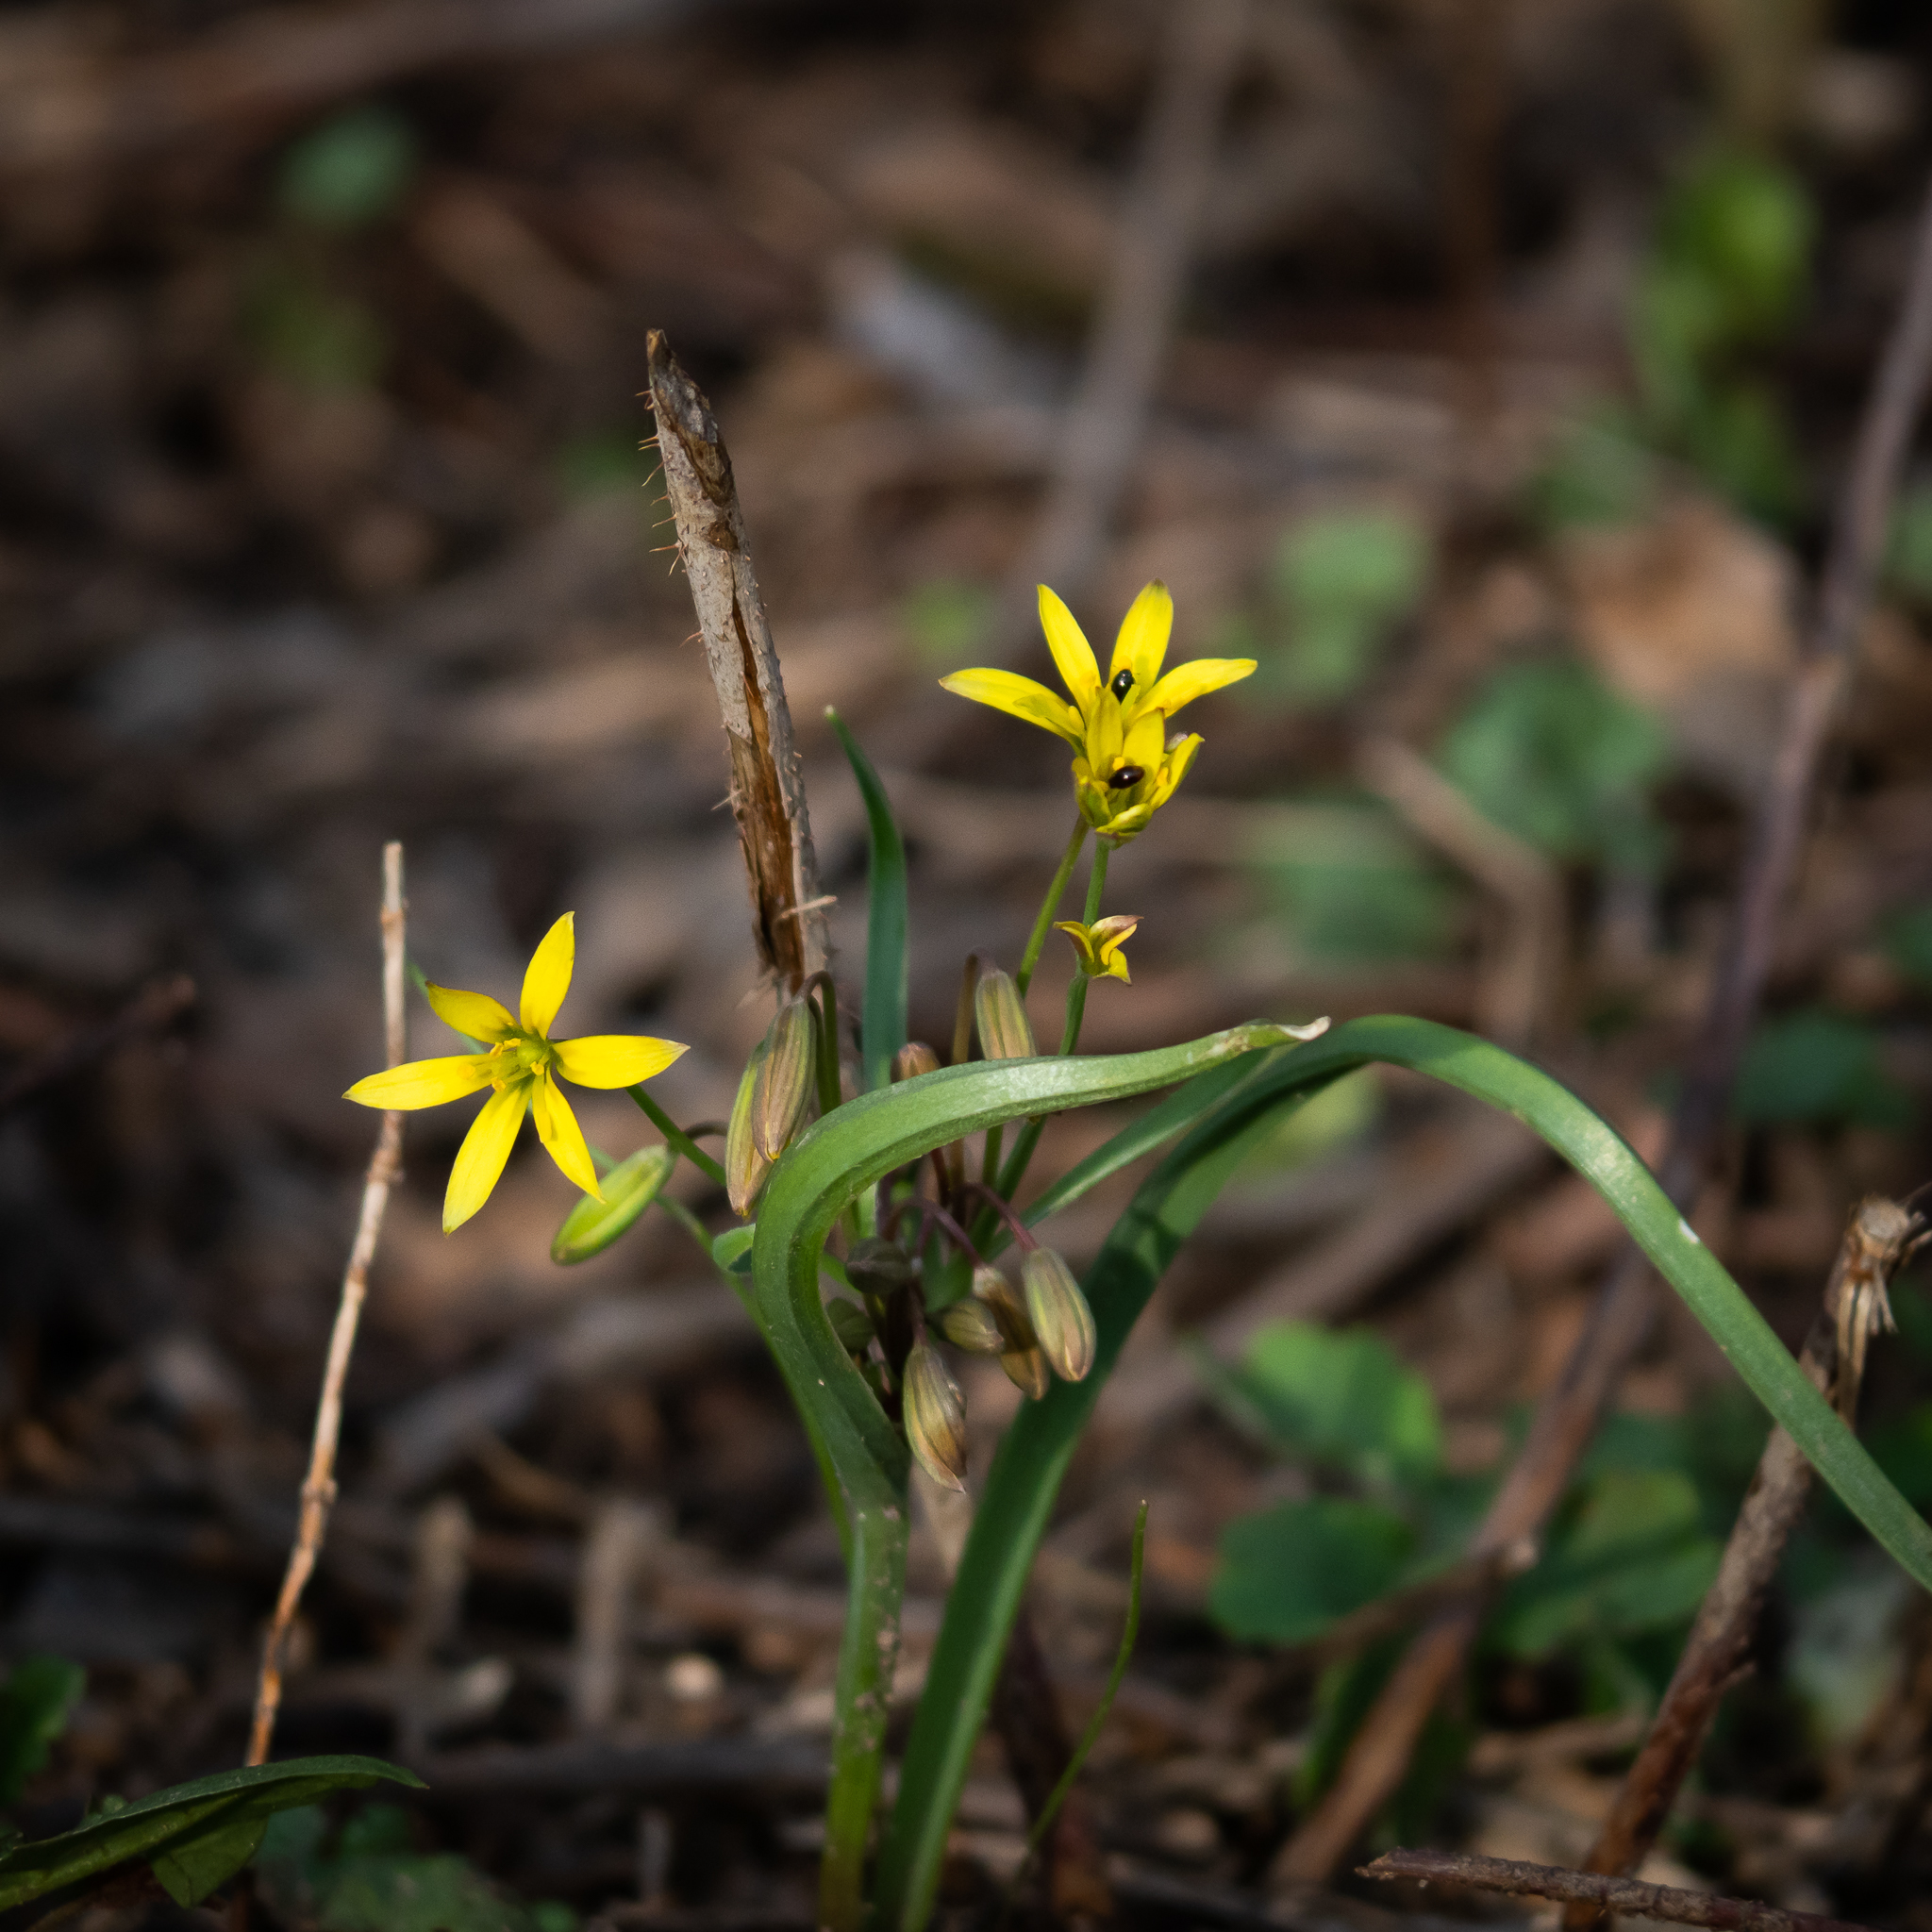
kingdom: Plantae
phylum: Tracheophyta
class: Liliopsida
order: Liliales
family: Liliaceae
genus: Gagea
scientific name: Gagea fragifera
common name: Lily
